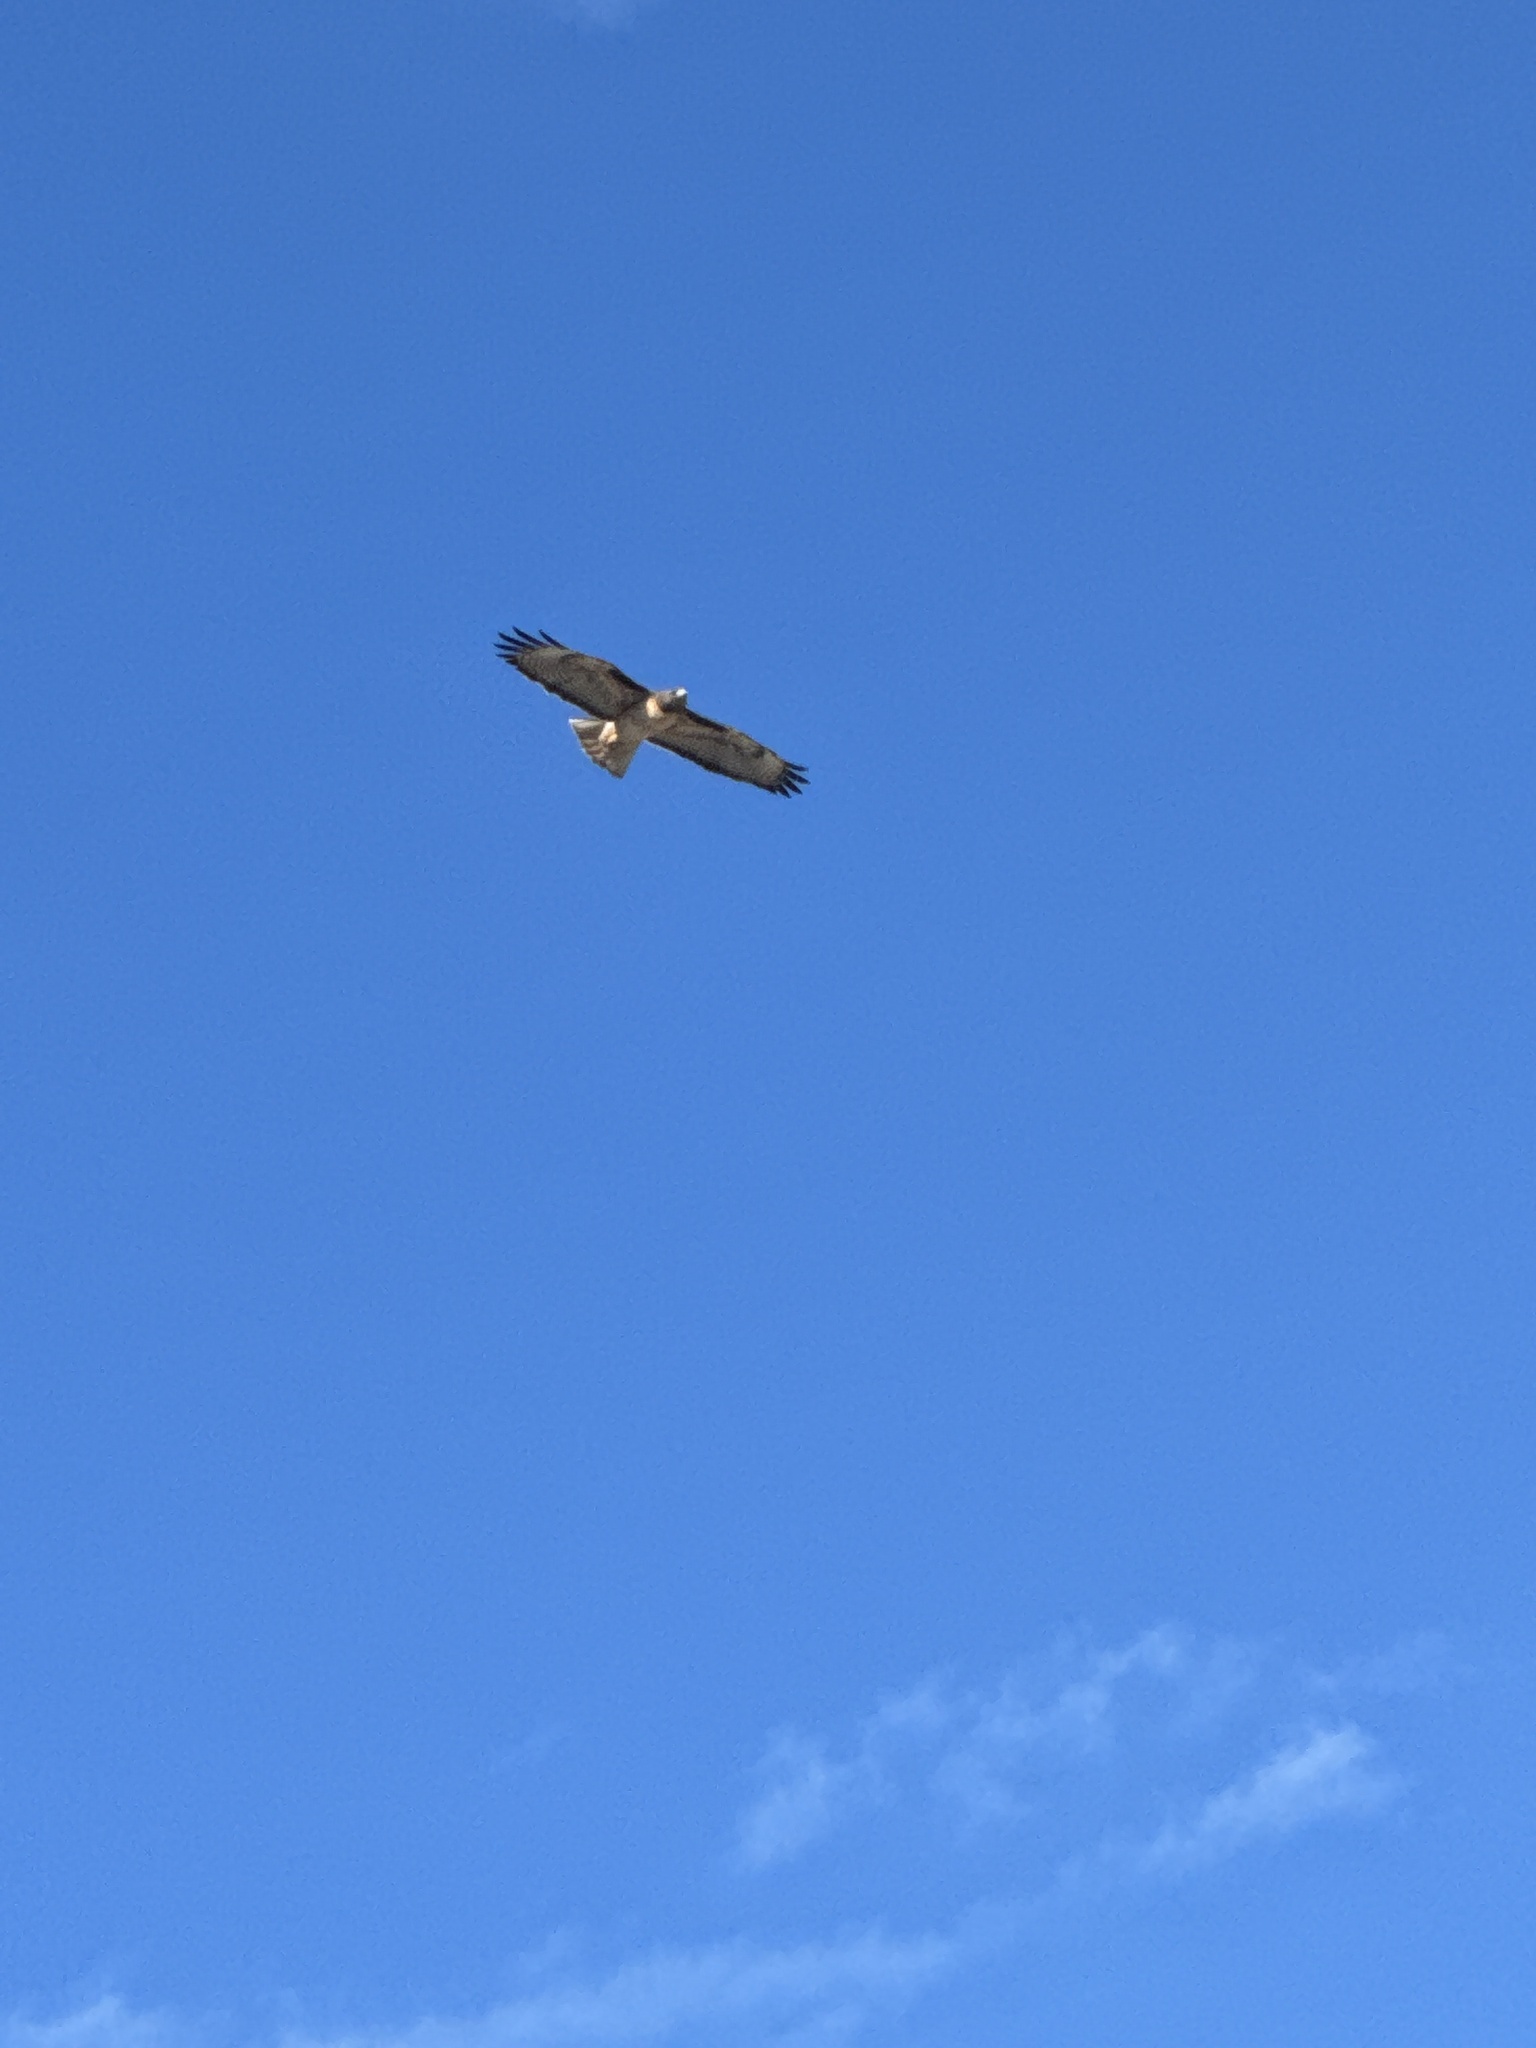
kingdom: Animalia
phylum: Chordata
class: Aves
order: Accipitriformes
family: Accipitridae
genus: Buteo
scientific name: Buteo jamaicensis
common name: Red-tailed hawk
